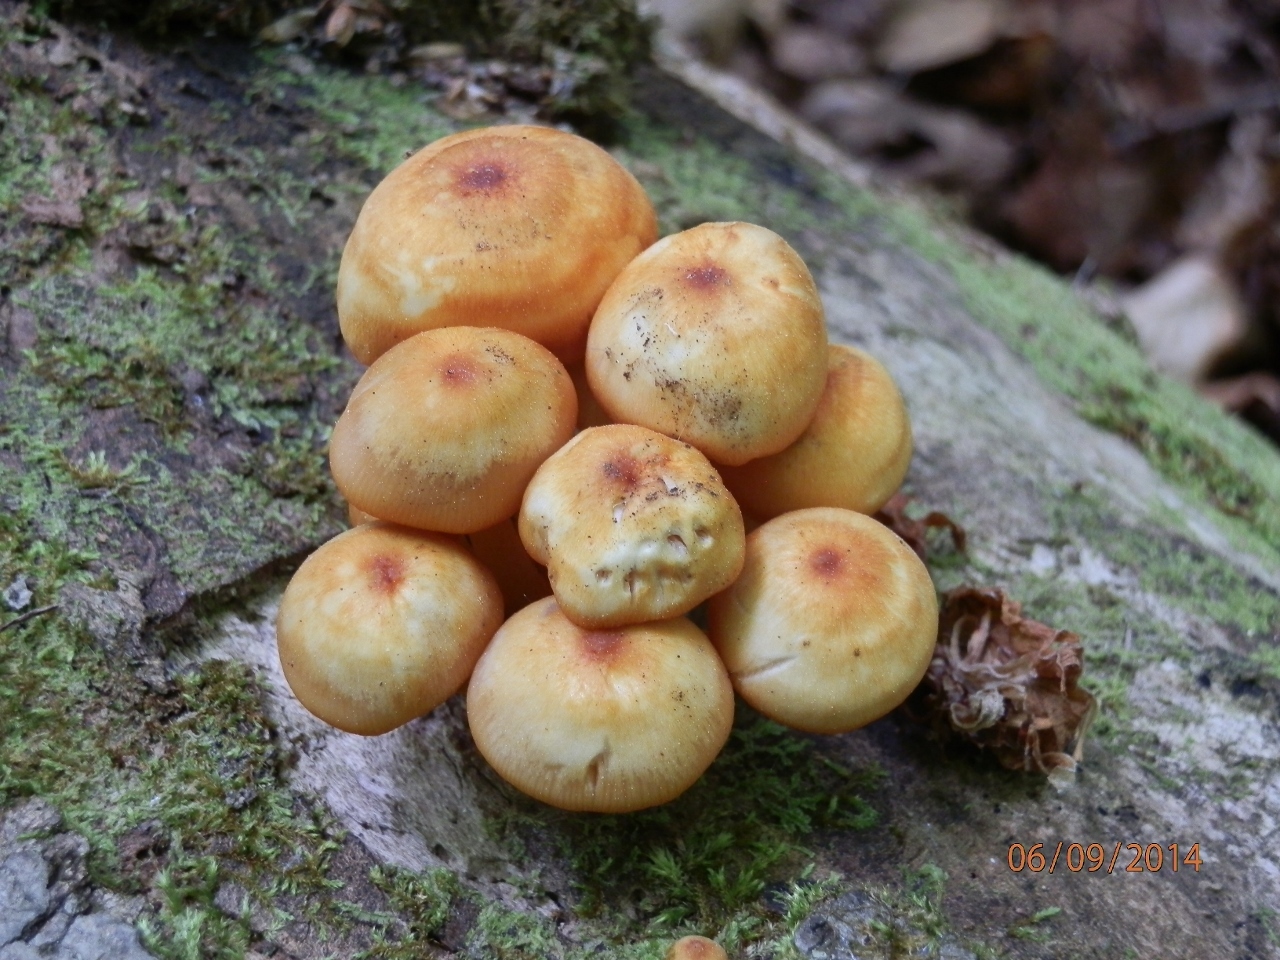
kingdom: Fungi
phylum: Basidiomycota
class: Agaricomycetes
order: Agaricales
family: Mycenaceae
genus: Mycena
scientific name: Mycena leaiana
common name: Orange mycena
